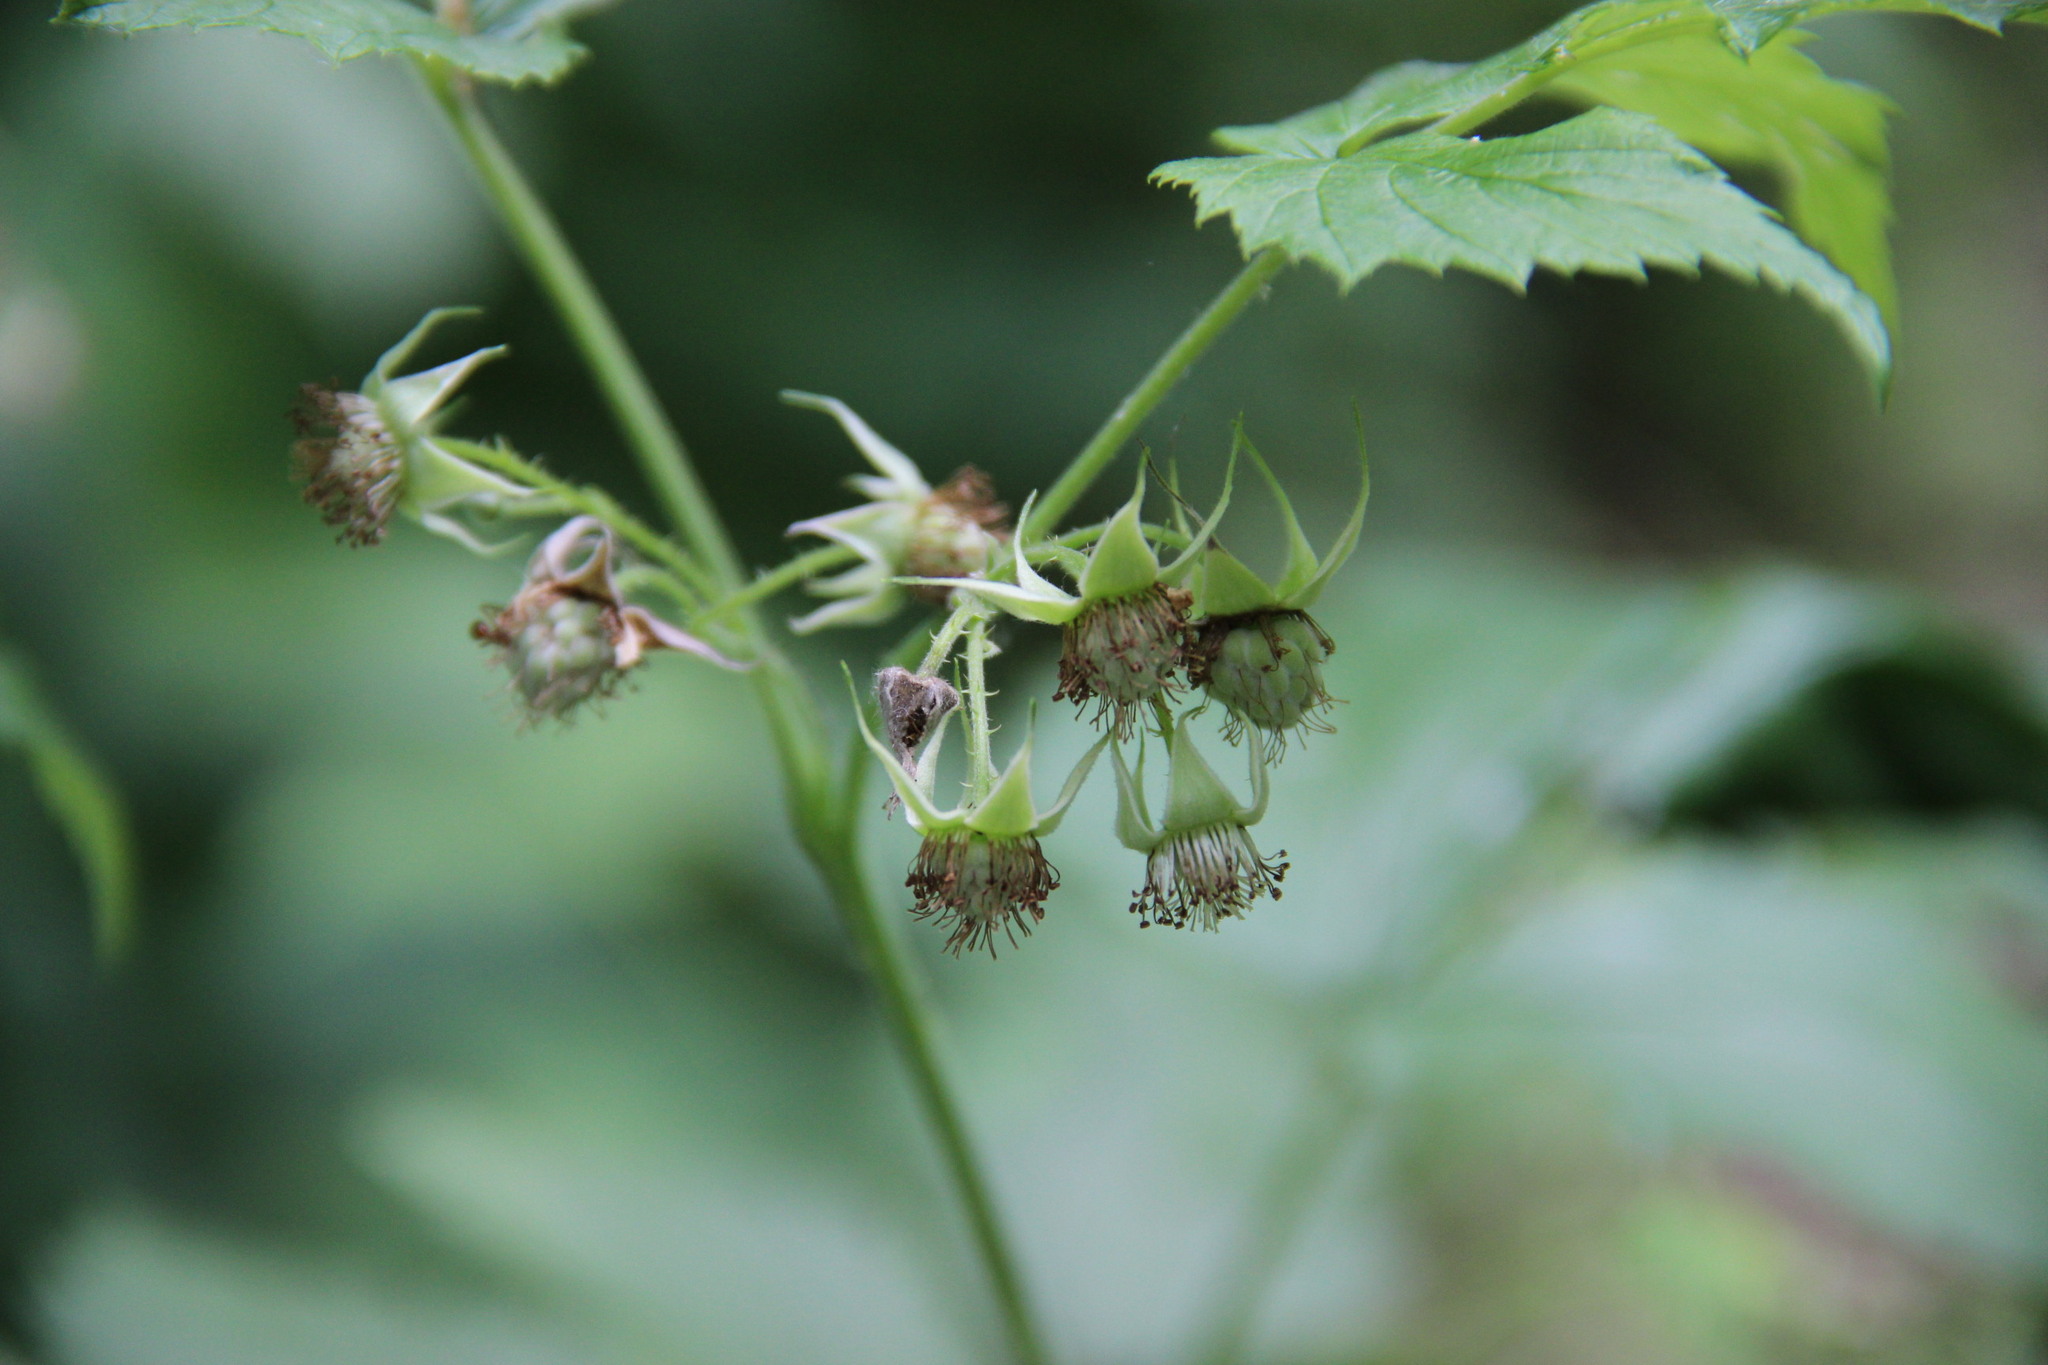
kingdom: Plantae
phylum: Tracheophyta
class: Magnoliopsida
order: Rosales
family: Rosaceae
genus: Rubus
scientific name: Rubus idaeus
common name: Raspberry
